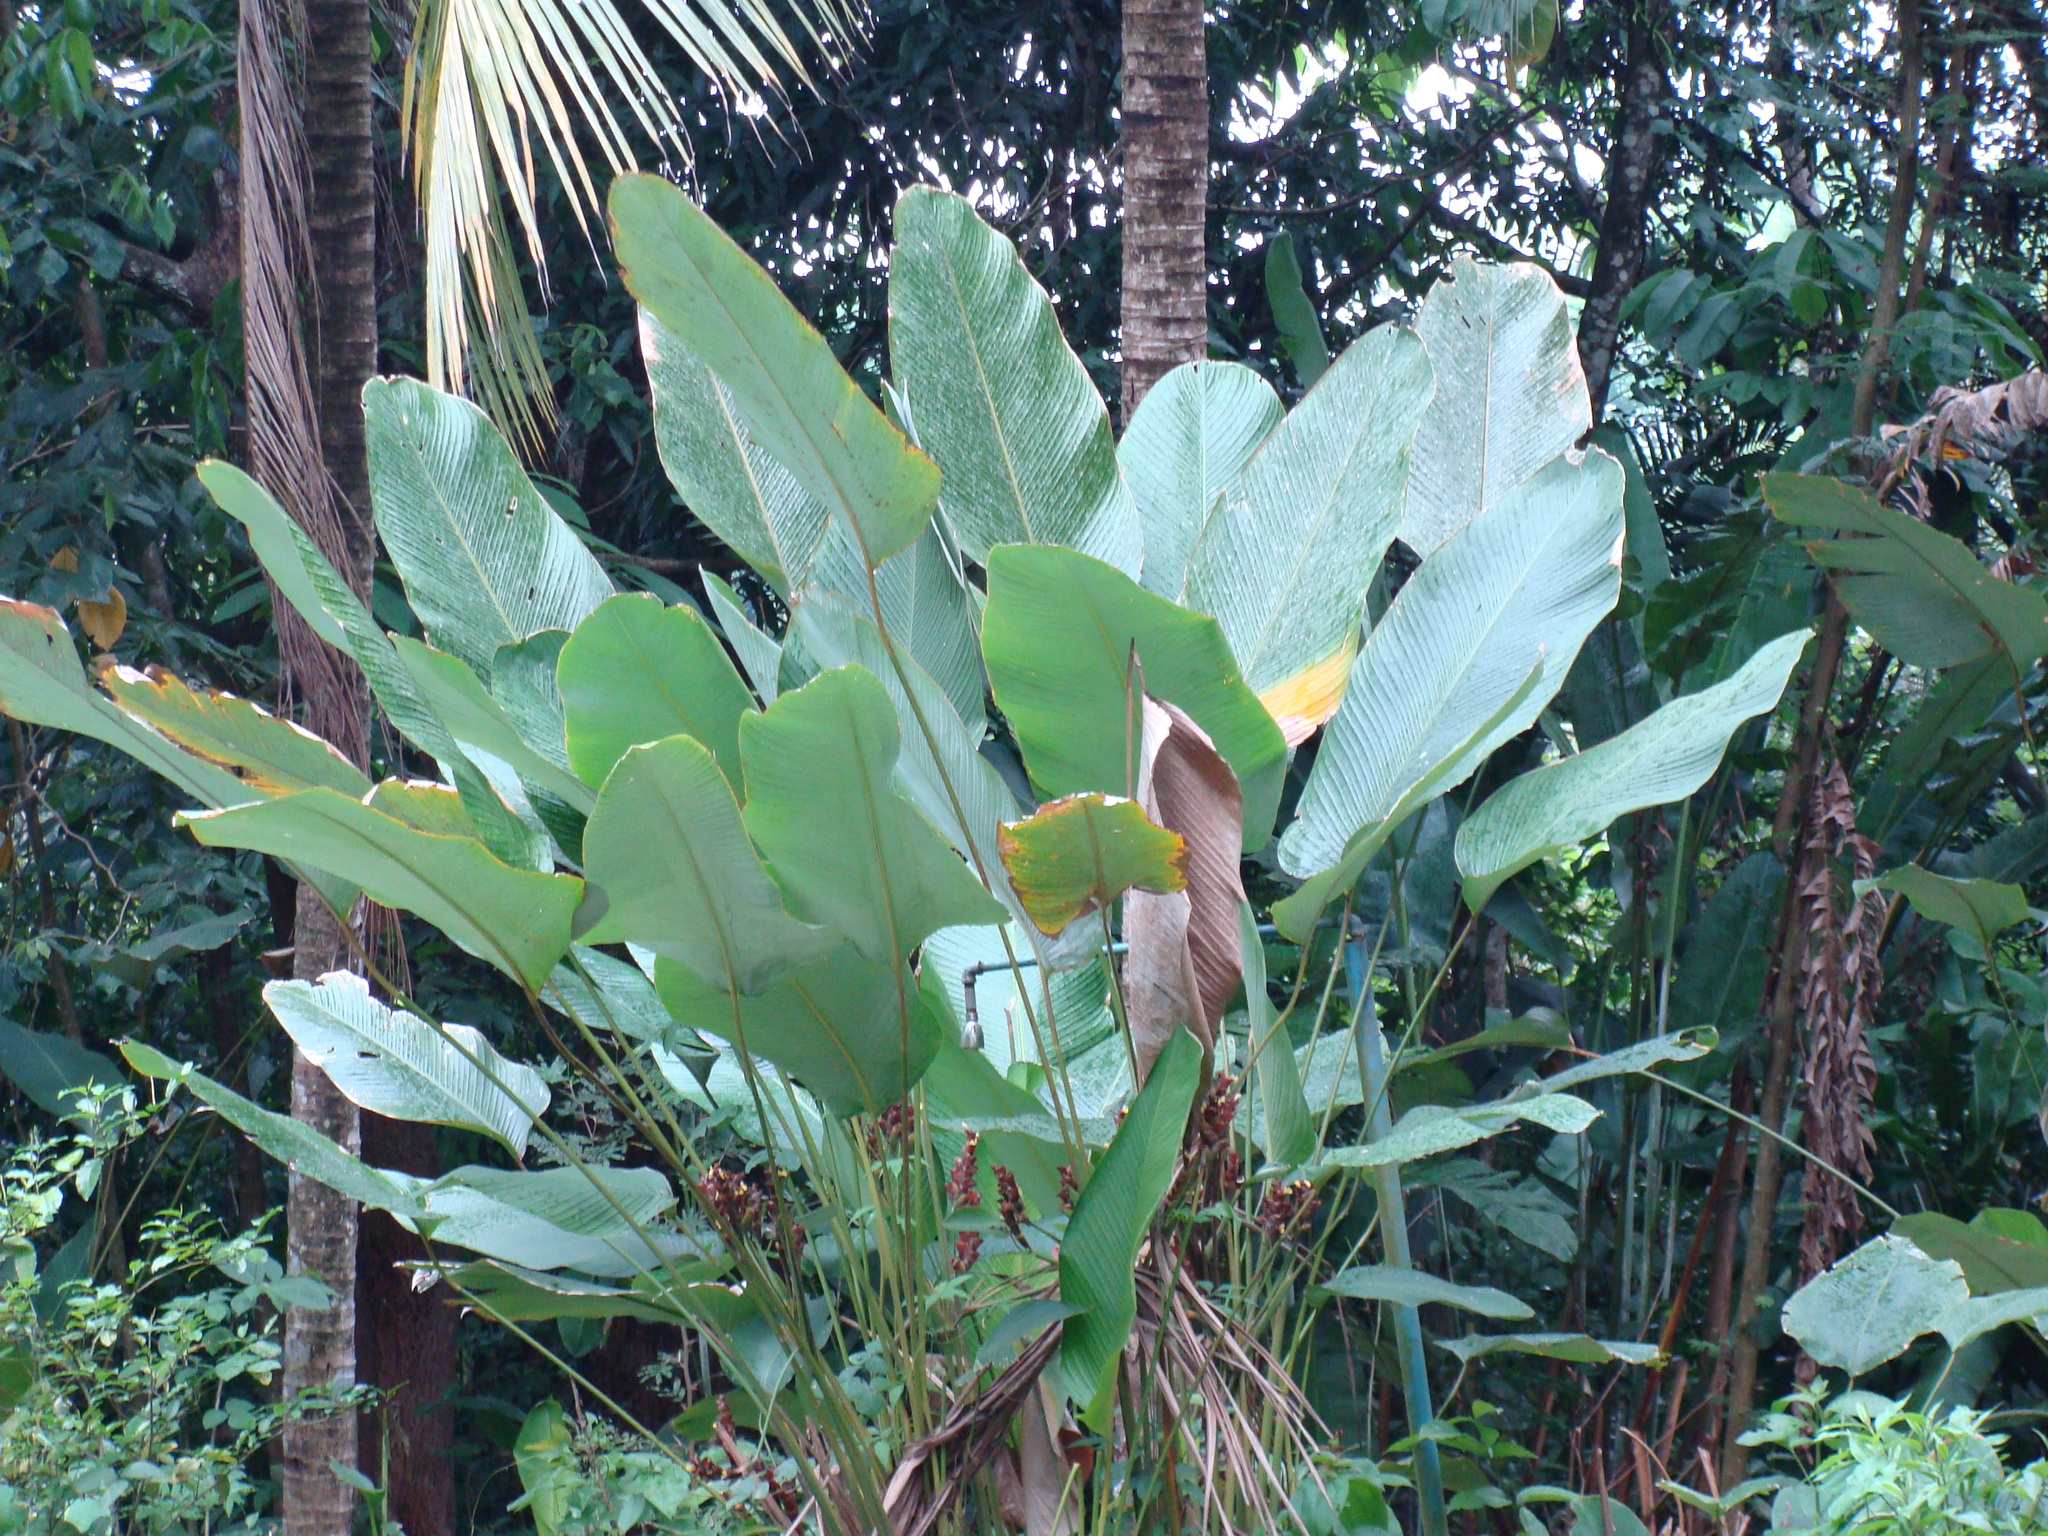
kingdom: Plantae
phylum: Tracheophyta
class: Liliopsida
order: Zingiberales
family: Marantaceae
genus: Calathea
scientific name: Calathea lutea
